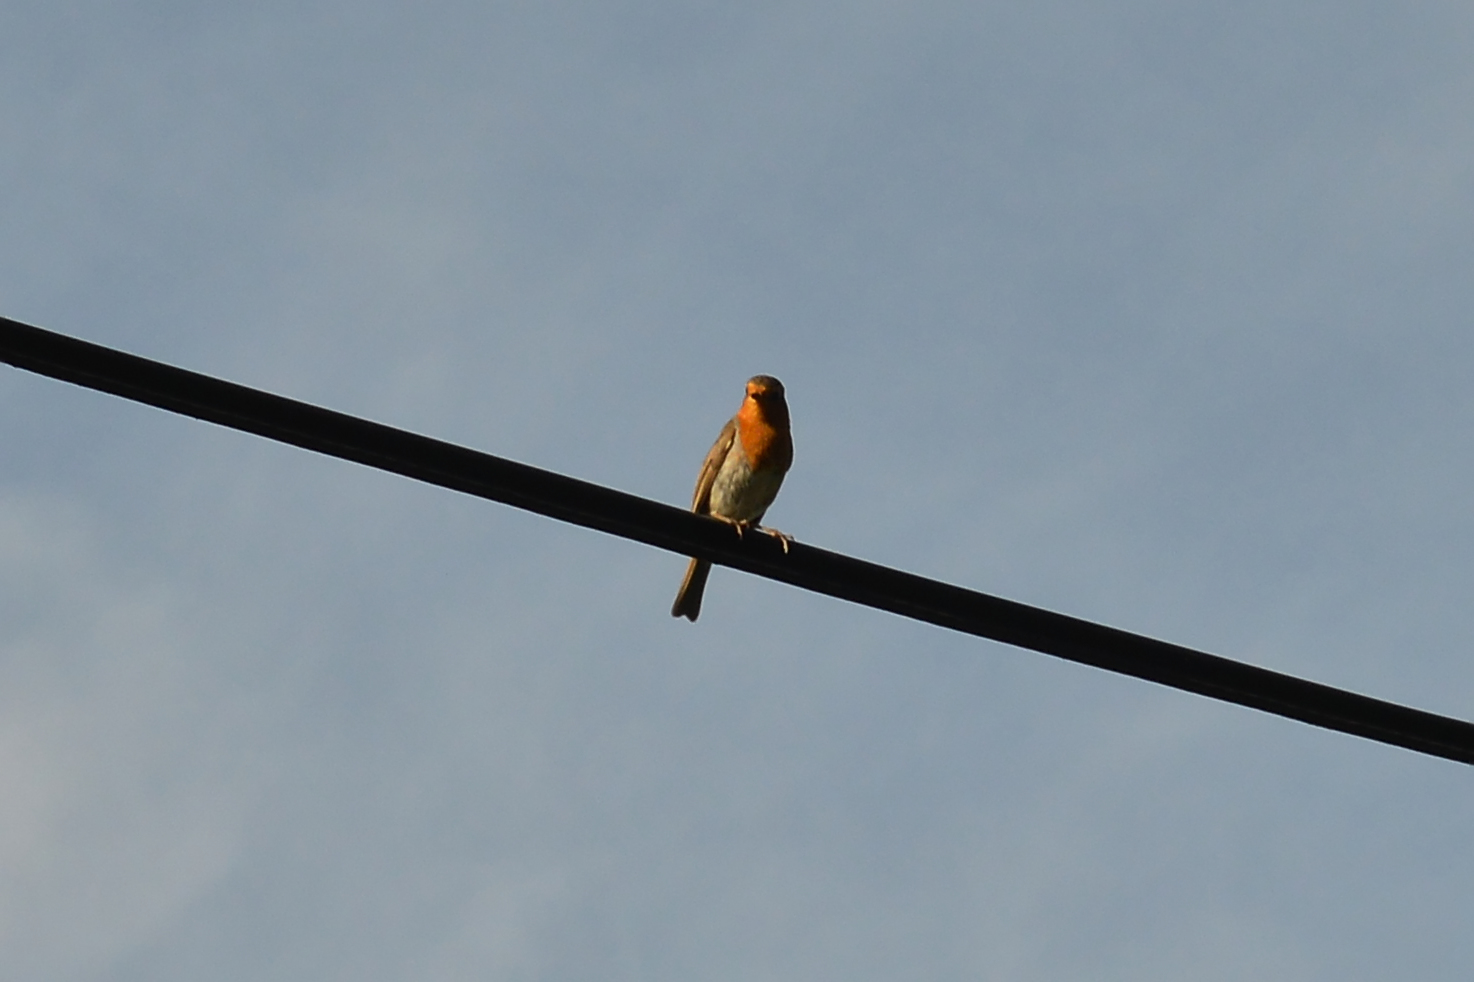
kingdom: Animalia
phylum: Chordata
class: Aves
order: Passeriformes
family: Muscicapidae
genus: Erithacus
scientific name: Erithacus rubecula
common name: European robin
